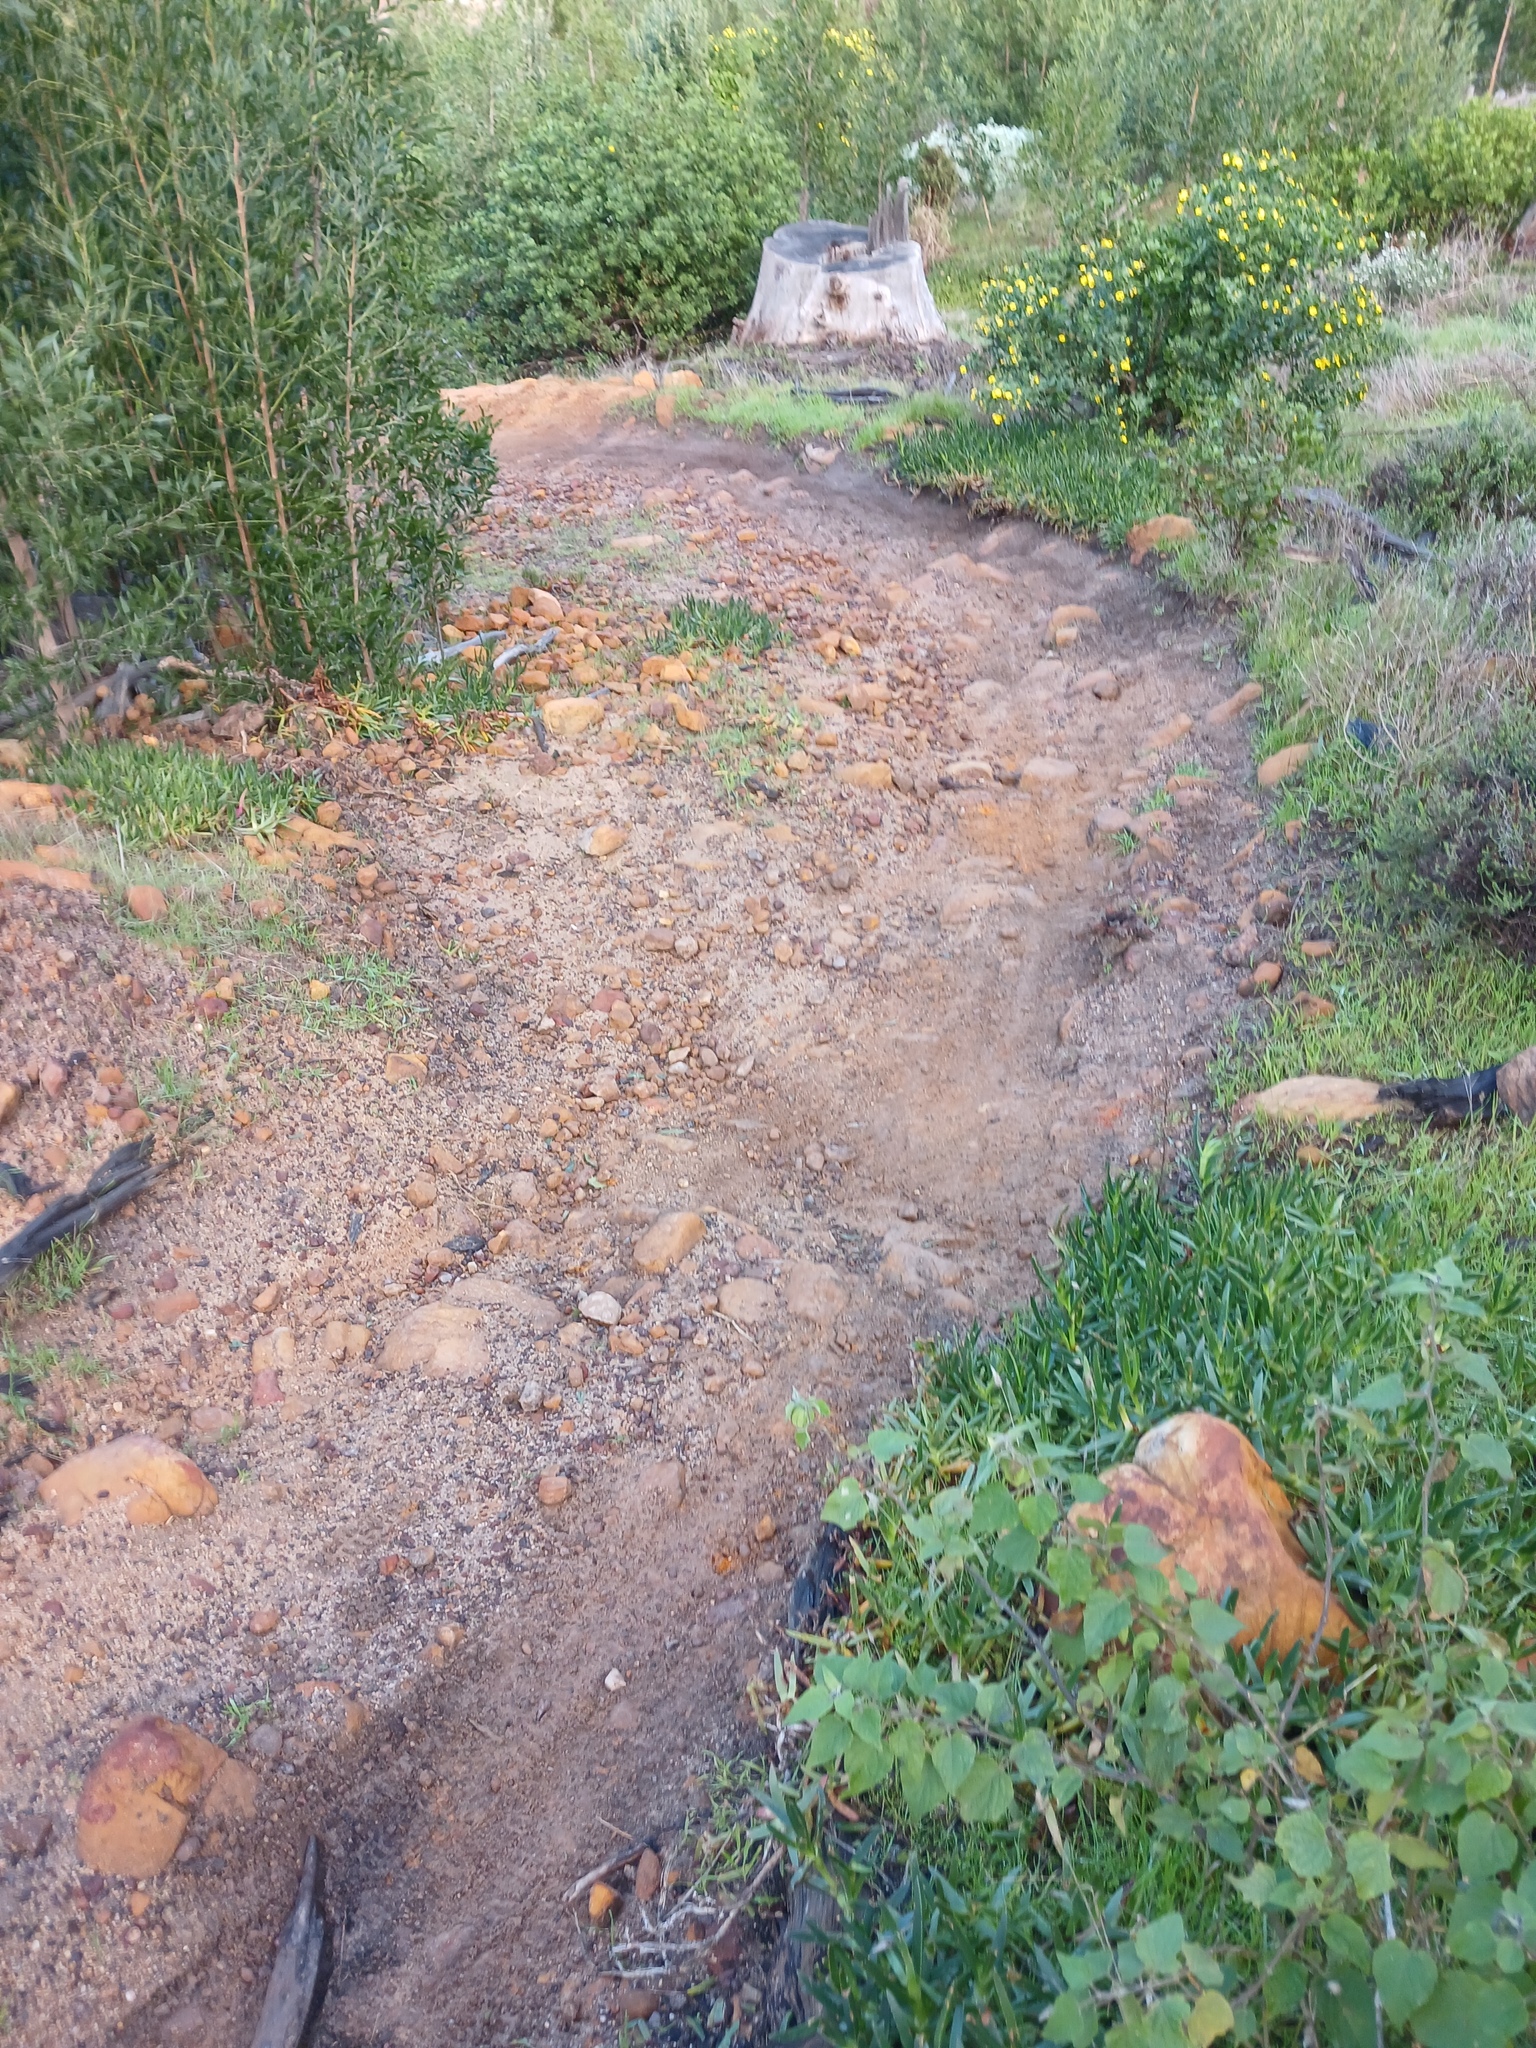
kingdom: Plantae
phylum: Tracheophyta
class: Magnoliopsida
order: Solanales
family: Solanaceae
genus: Physalis
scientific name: Physalis peruviana
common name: Cape-gooseberry
